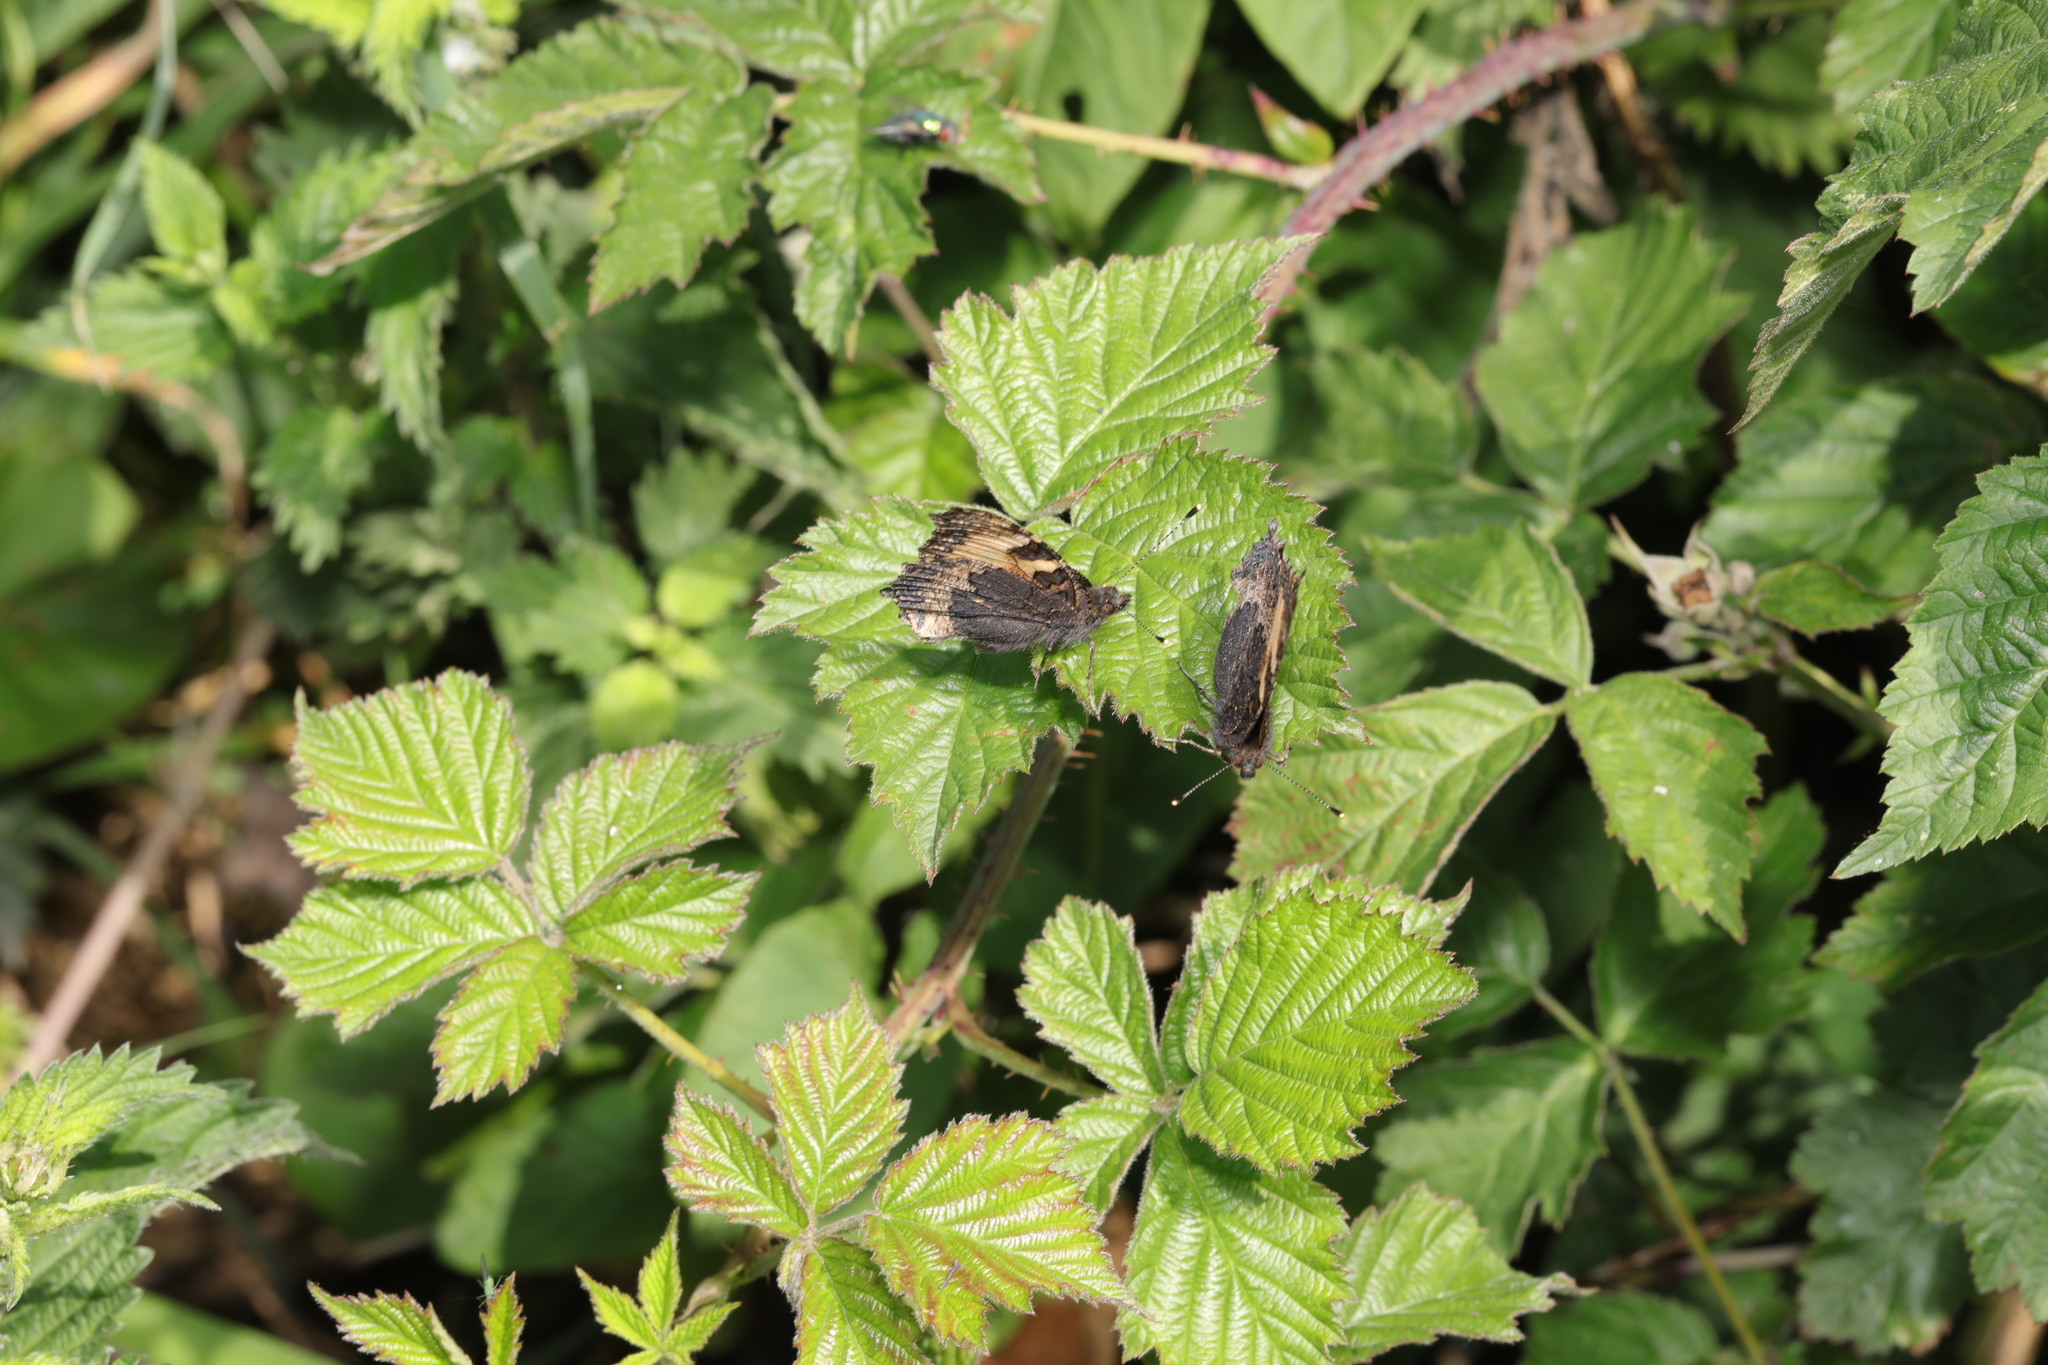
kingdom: Animalia
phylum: Arthropoda
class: Insecta
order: Lepidoptera
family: Nymphalidae
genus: Aglais
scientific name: Aglais urticae
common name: Small tortoiseshell
